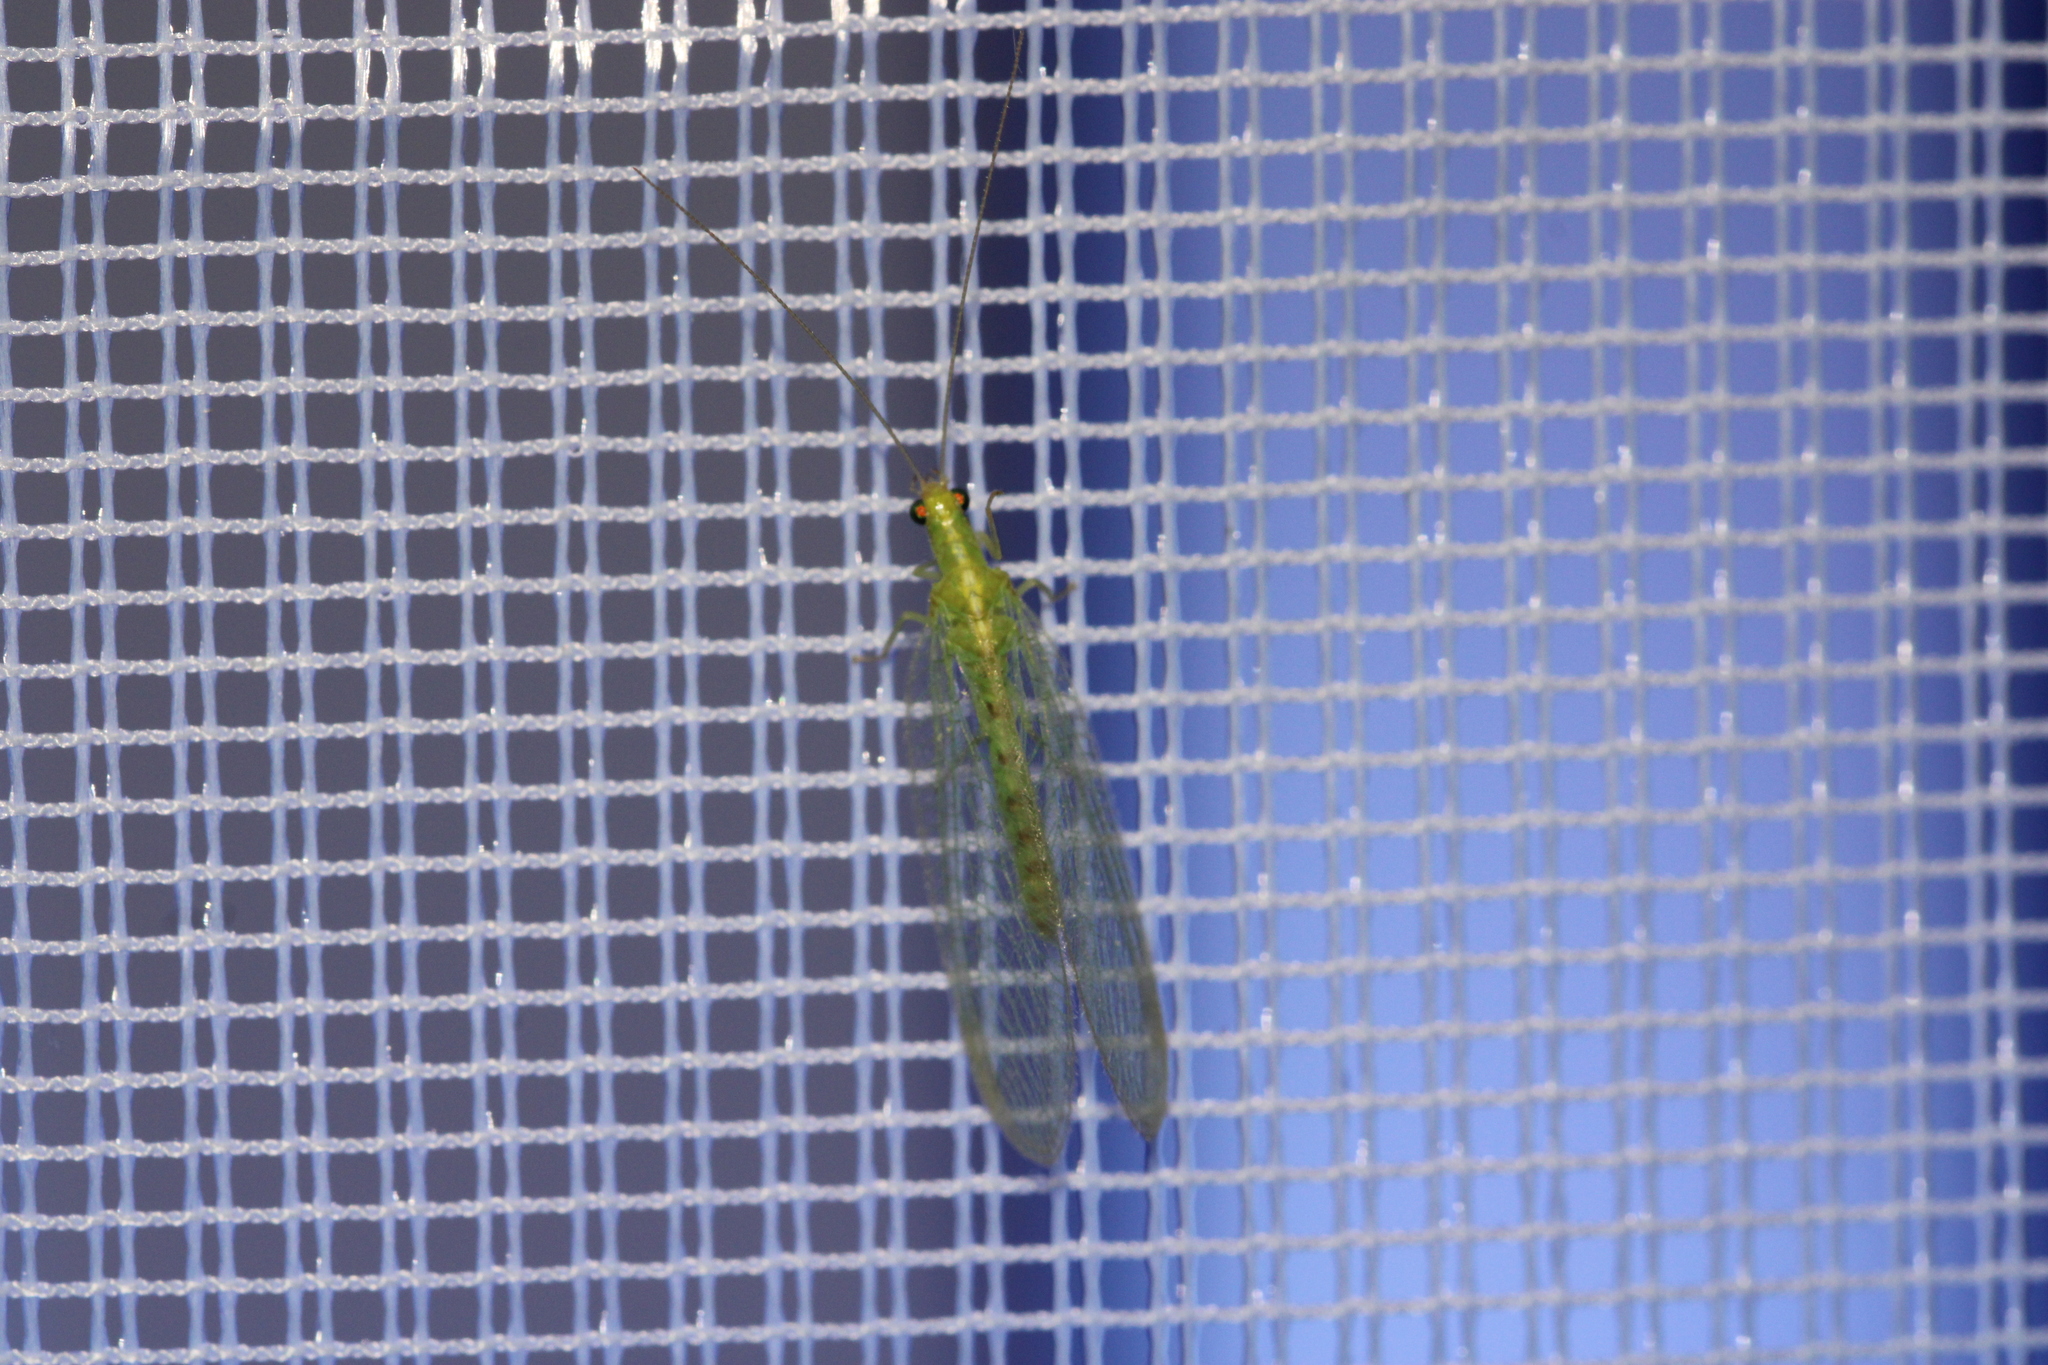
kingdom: Animalia
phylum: Arthropoda
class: Insecta
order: Neuroptera
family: Chrysopidae
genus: Chrysoperla
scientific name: Chrysoperla
